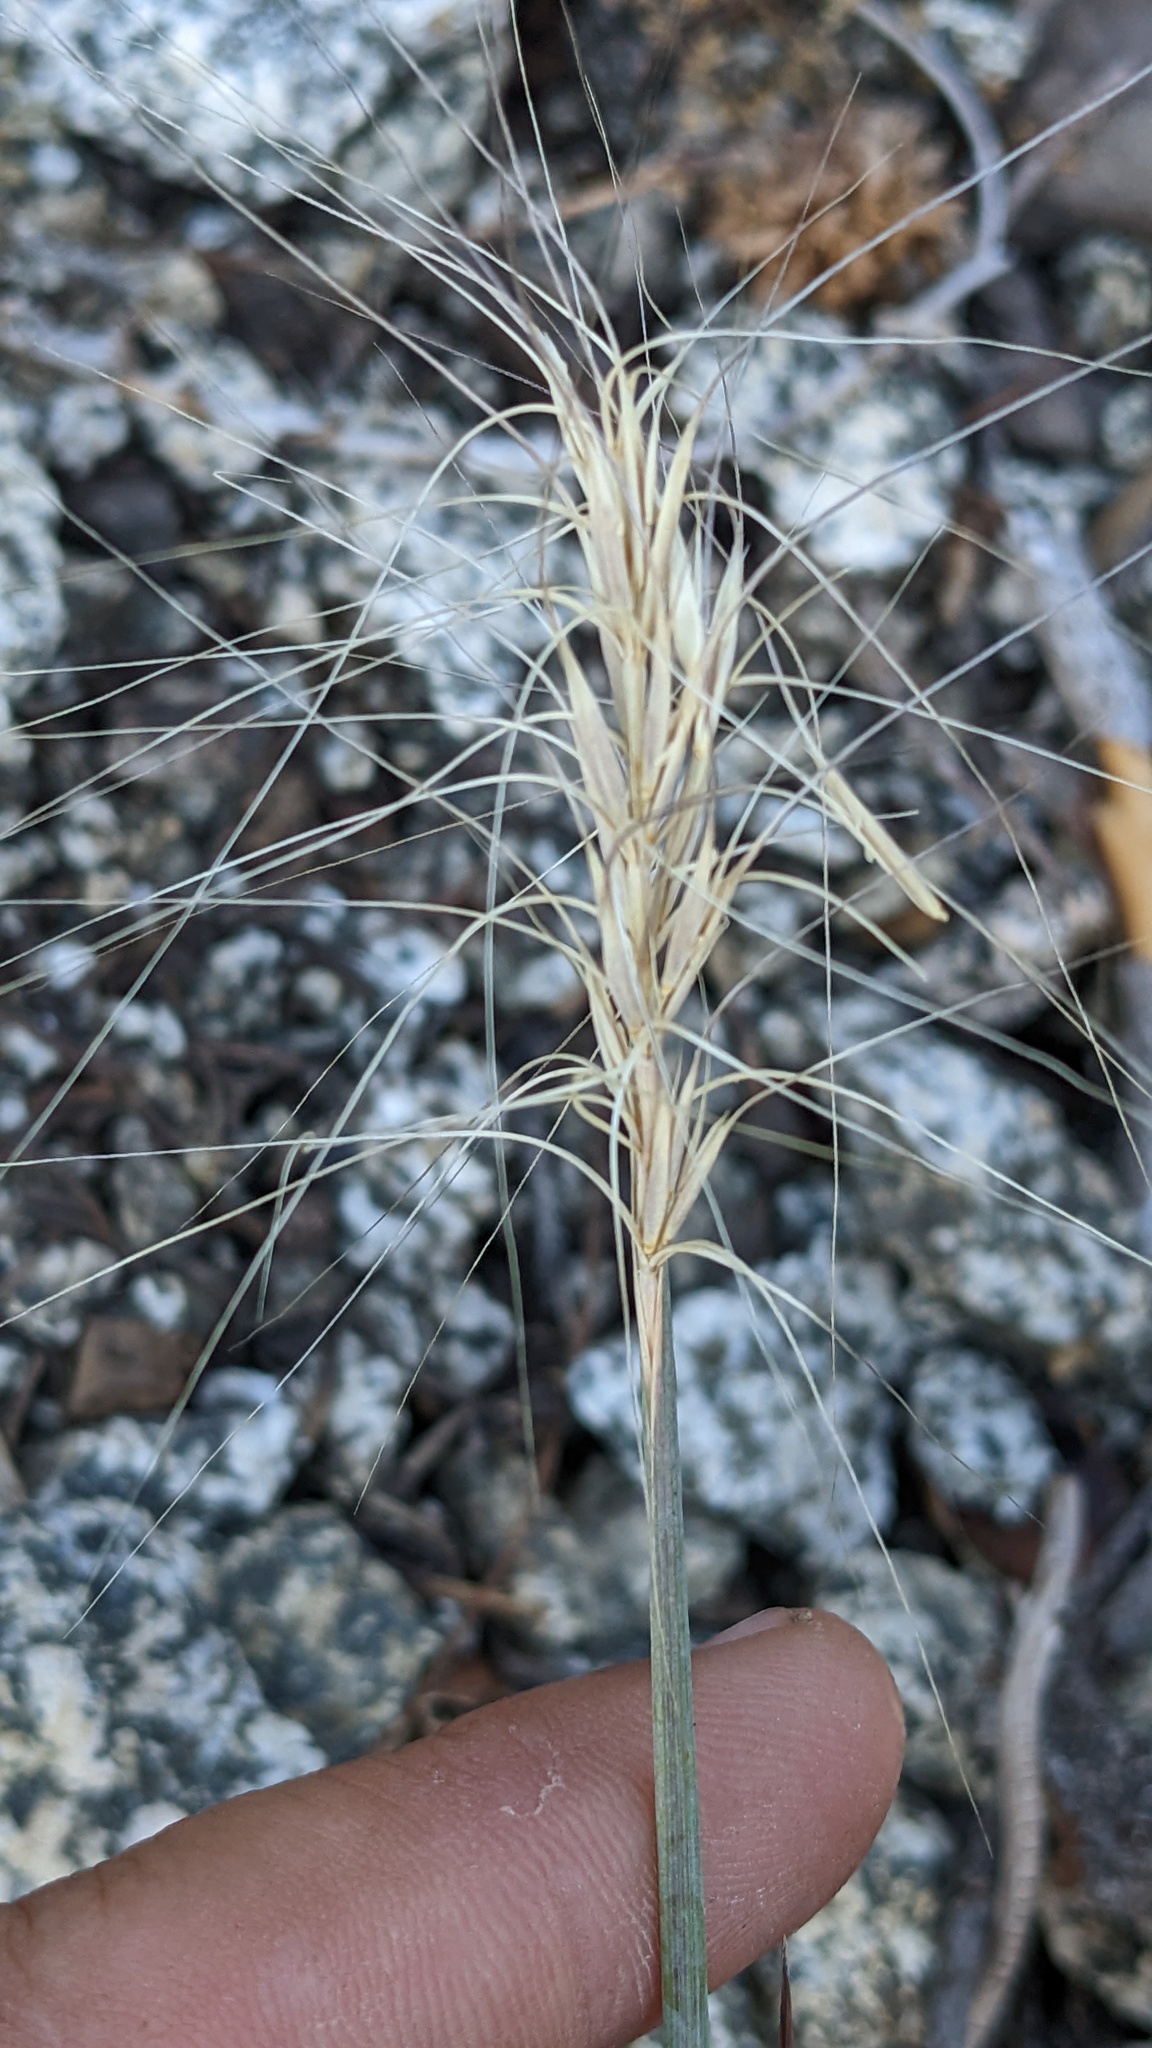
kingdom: Plantae
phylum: Tracheophyta
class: Liliopsida
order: Poales
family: Poaceae
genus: Elymus
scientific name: Elymus elymoides
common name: Bottlebrush squirreltail
